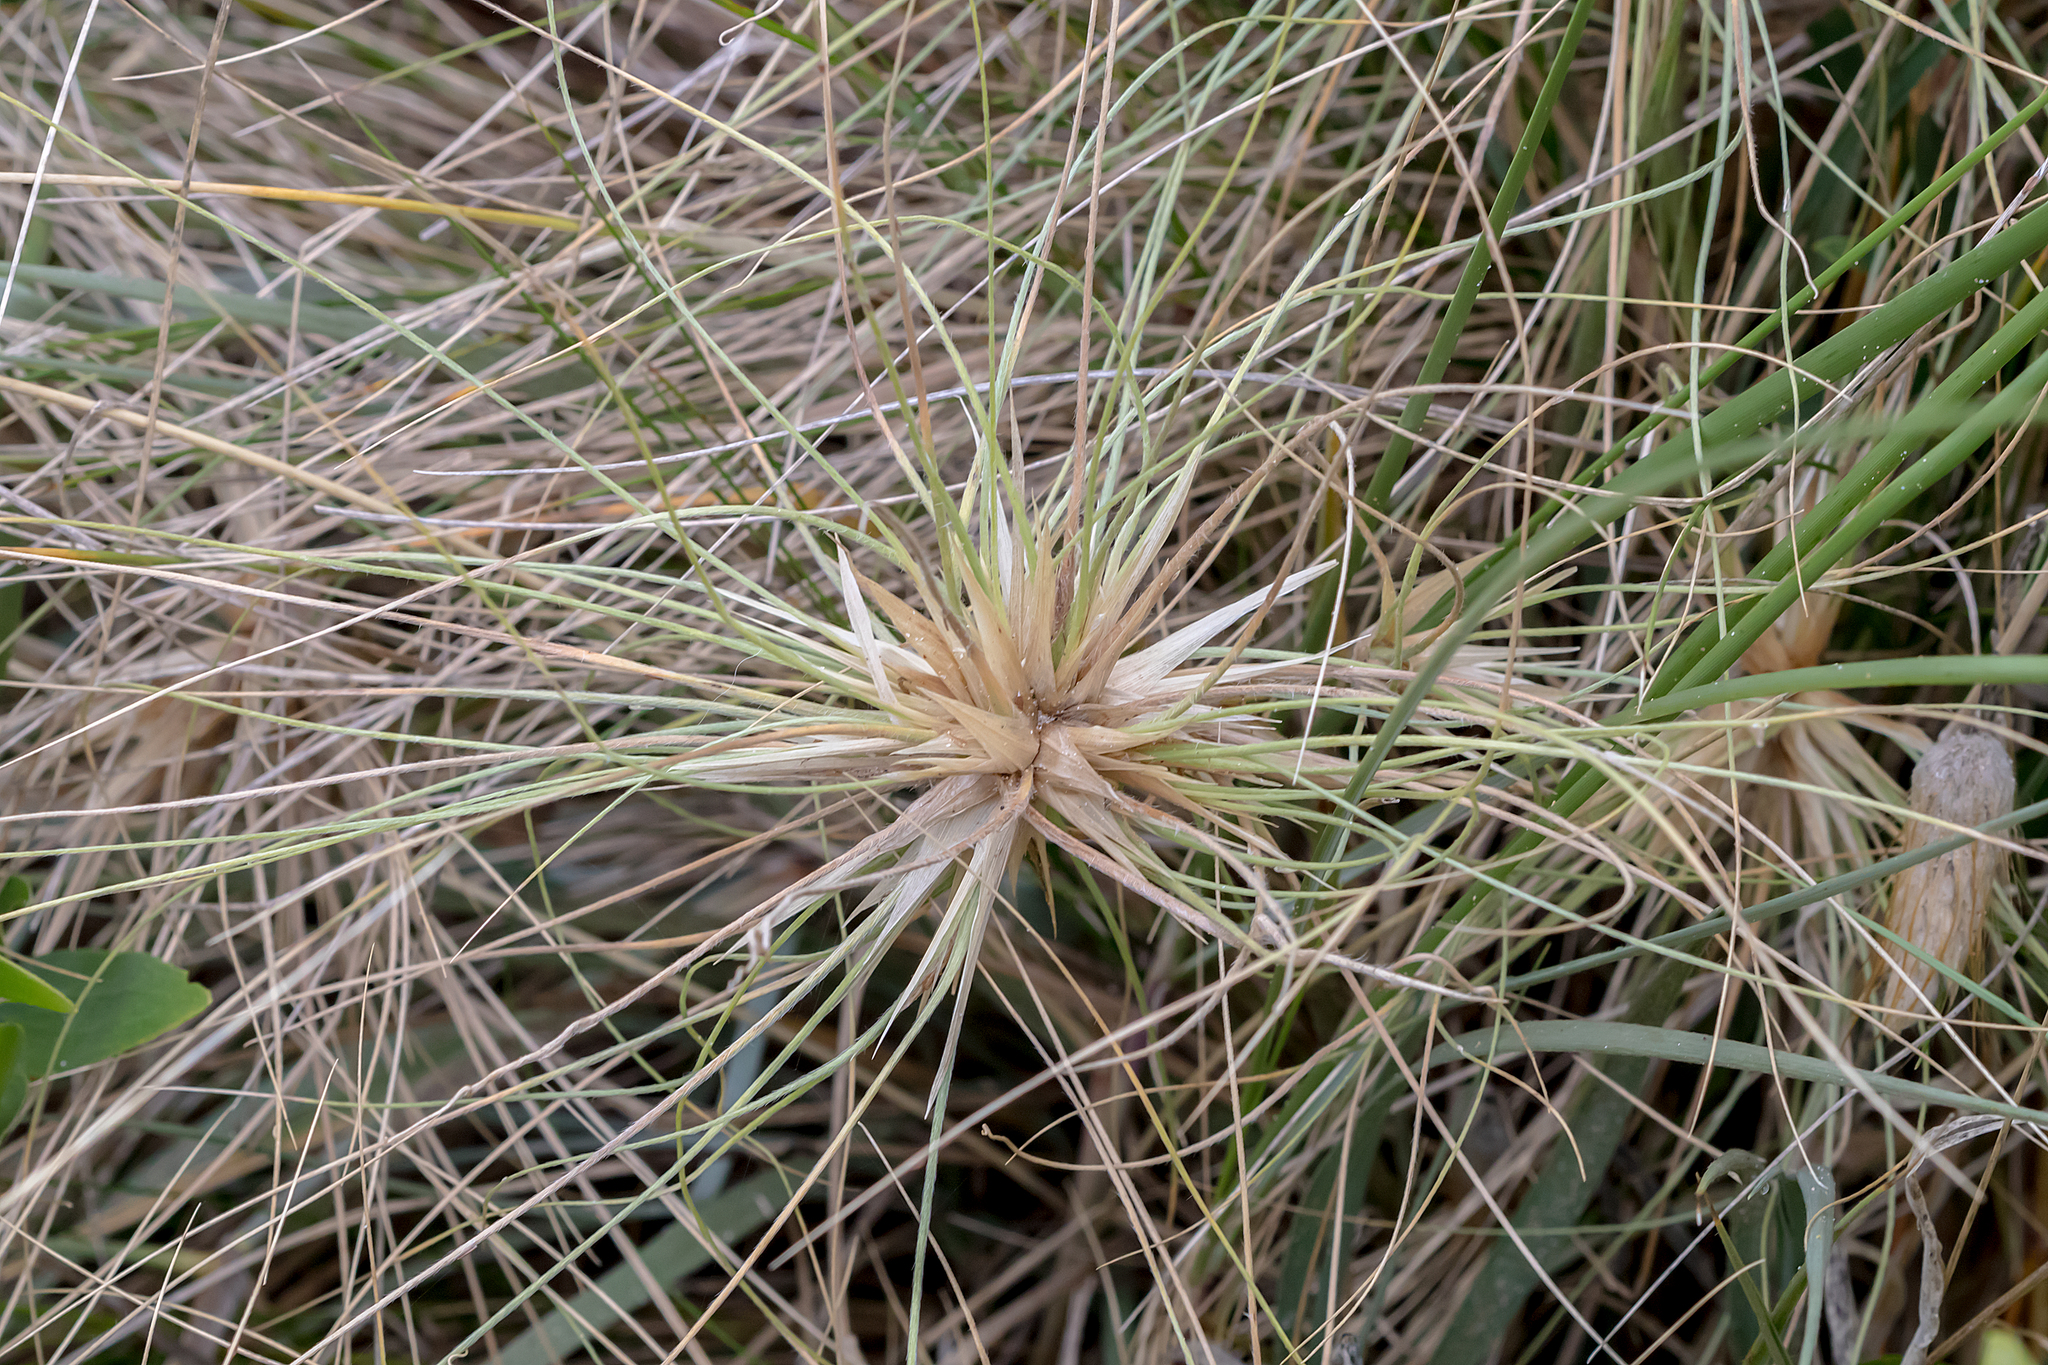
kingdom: Plantae
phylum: Tracheophyta
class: Liliopsida
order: Poales
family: Poaceae
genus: Spinifex
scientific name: Spinifex sericeus
